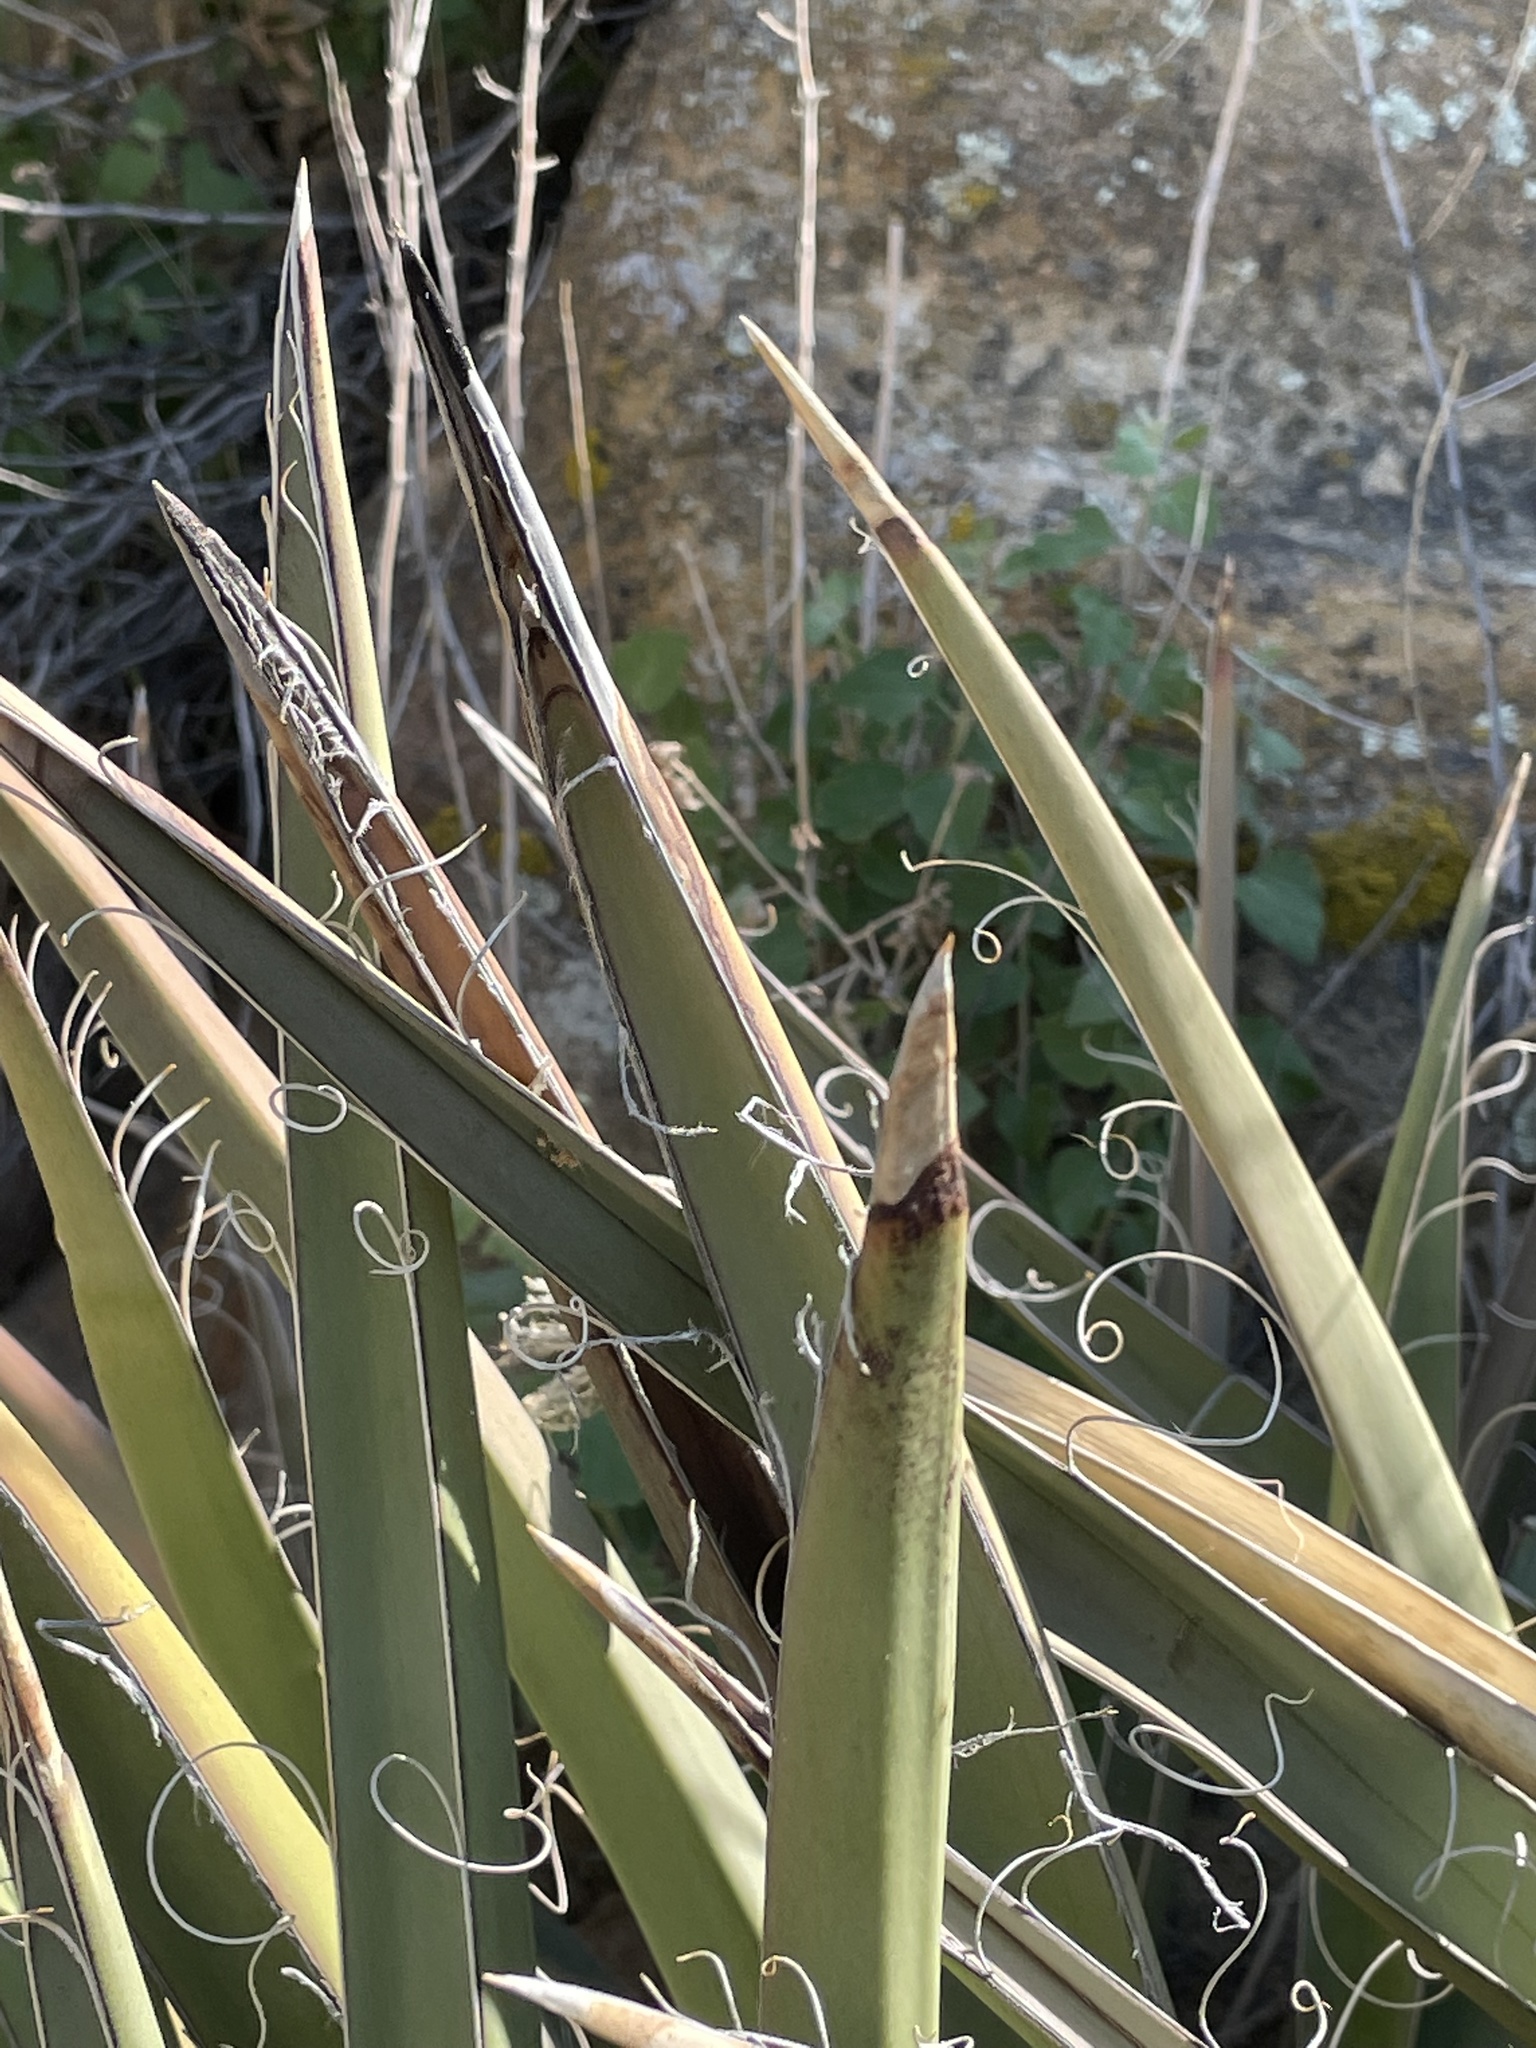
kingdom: Plantae
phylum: Tracheophyta
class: Liliopsida
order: Asparagales
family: Asparagaceae
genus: Yucca
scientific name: Yucca baccata
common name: Banana yucca
